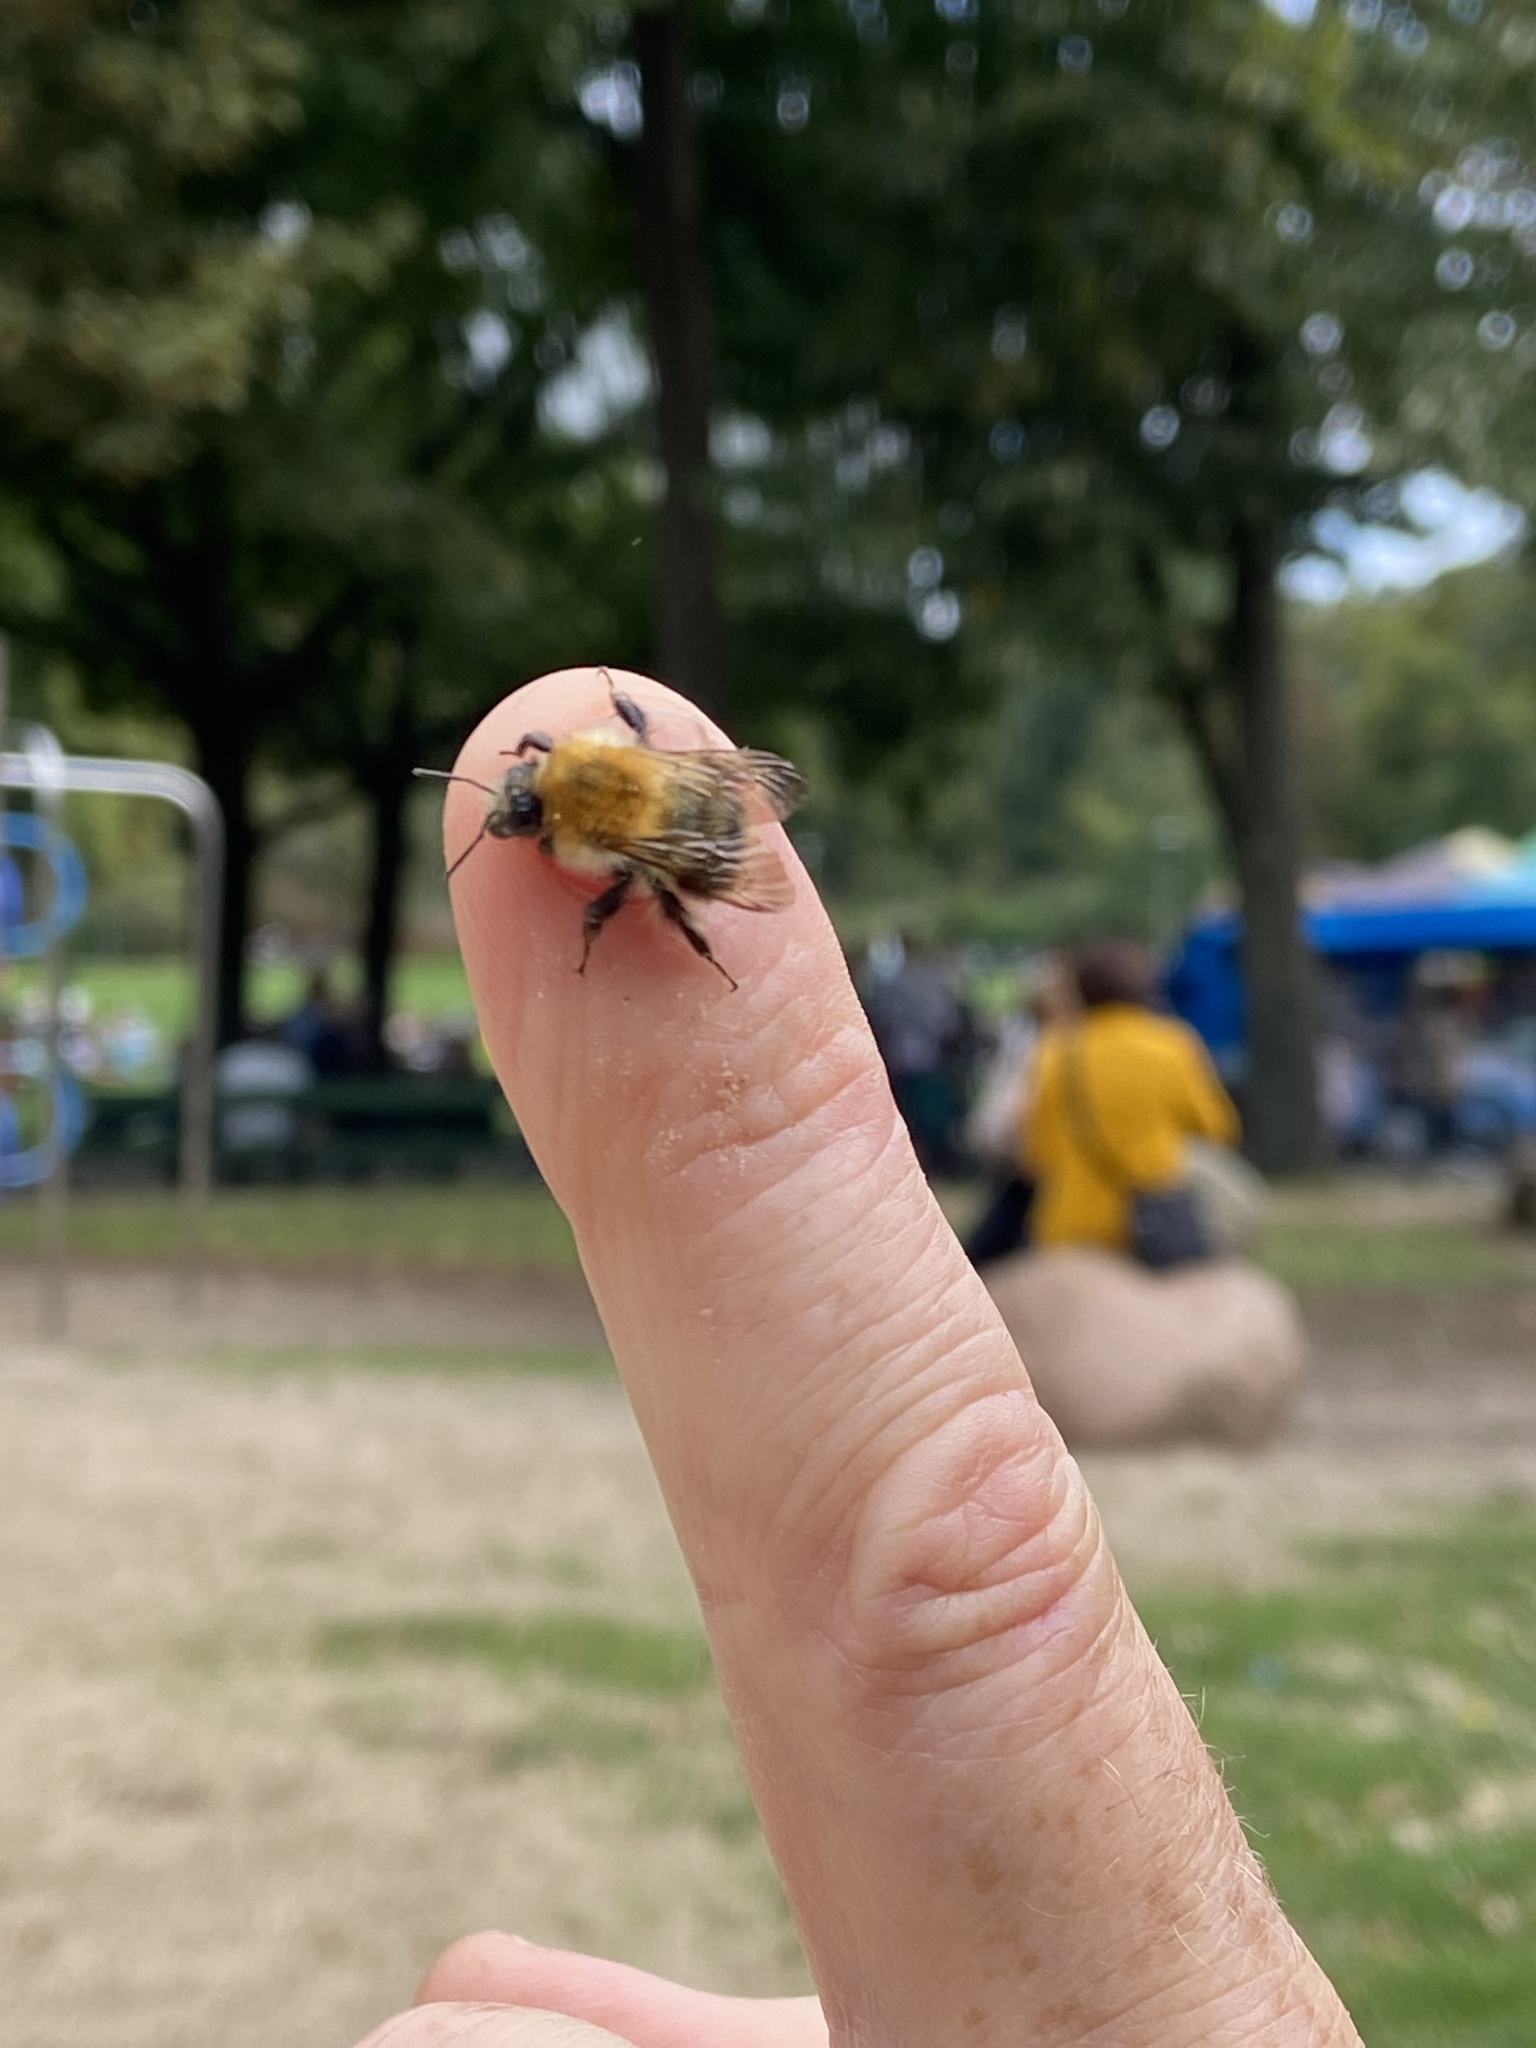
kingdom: Animalia
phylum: Arthropoda
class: Insecta
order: Hymenoptera
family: Apidae
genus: Bombus
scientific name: Bombus pascuorum
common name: Common carder bee
